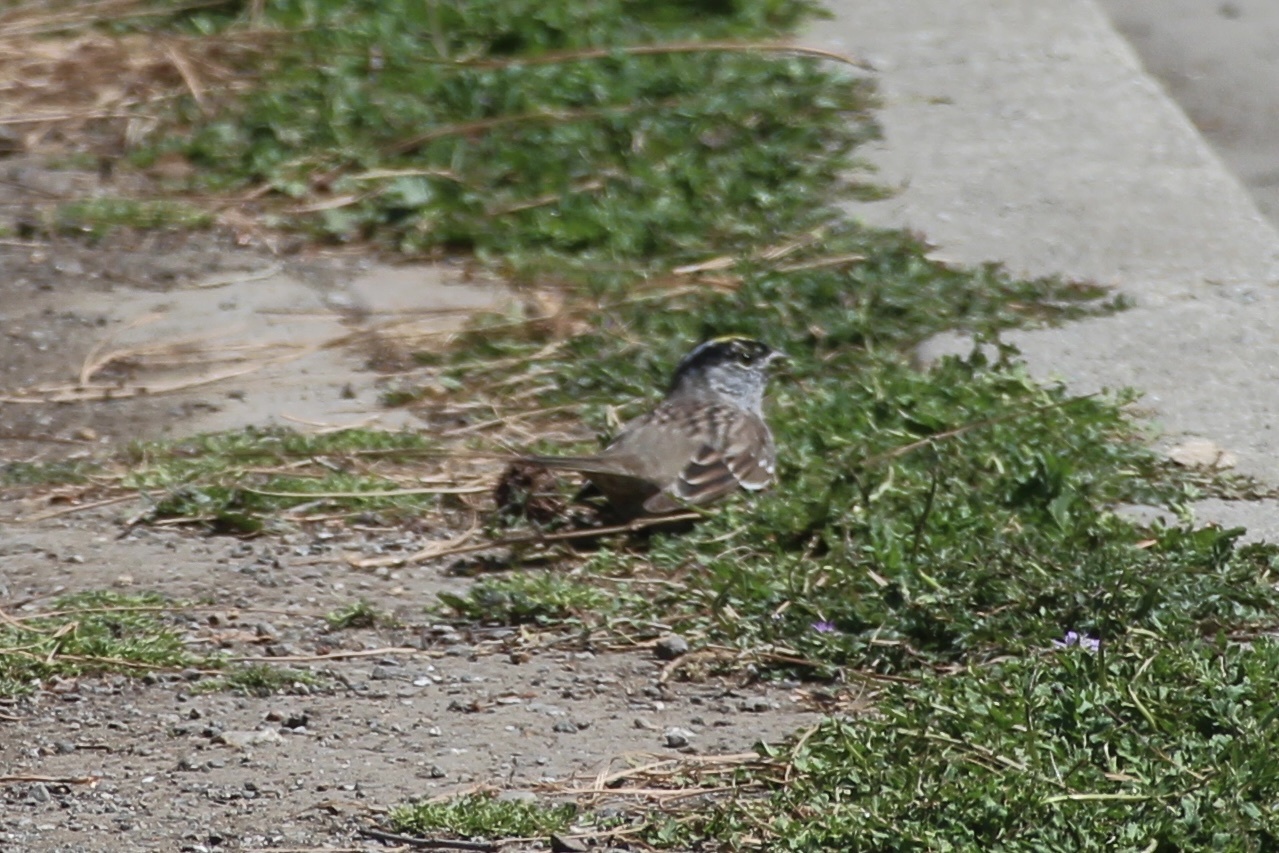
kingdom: Animalia
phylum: Chordata
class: Aves
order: Passeriformes
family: Passerellidae
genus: Zonotrichia
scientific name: Zonotrichia atricapilla
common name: Golden-crowned sparrow
